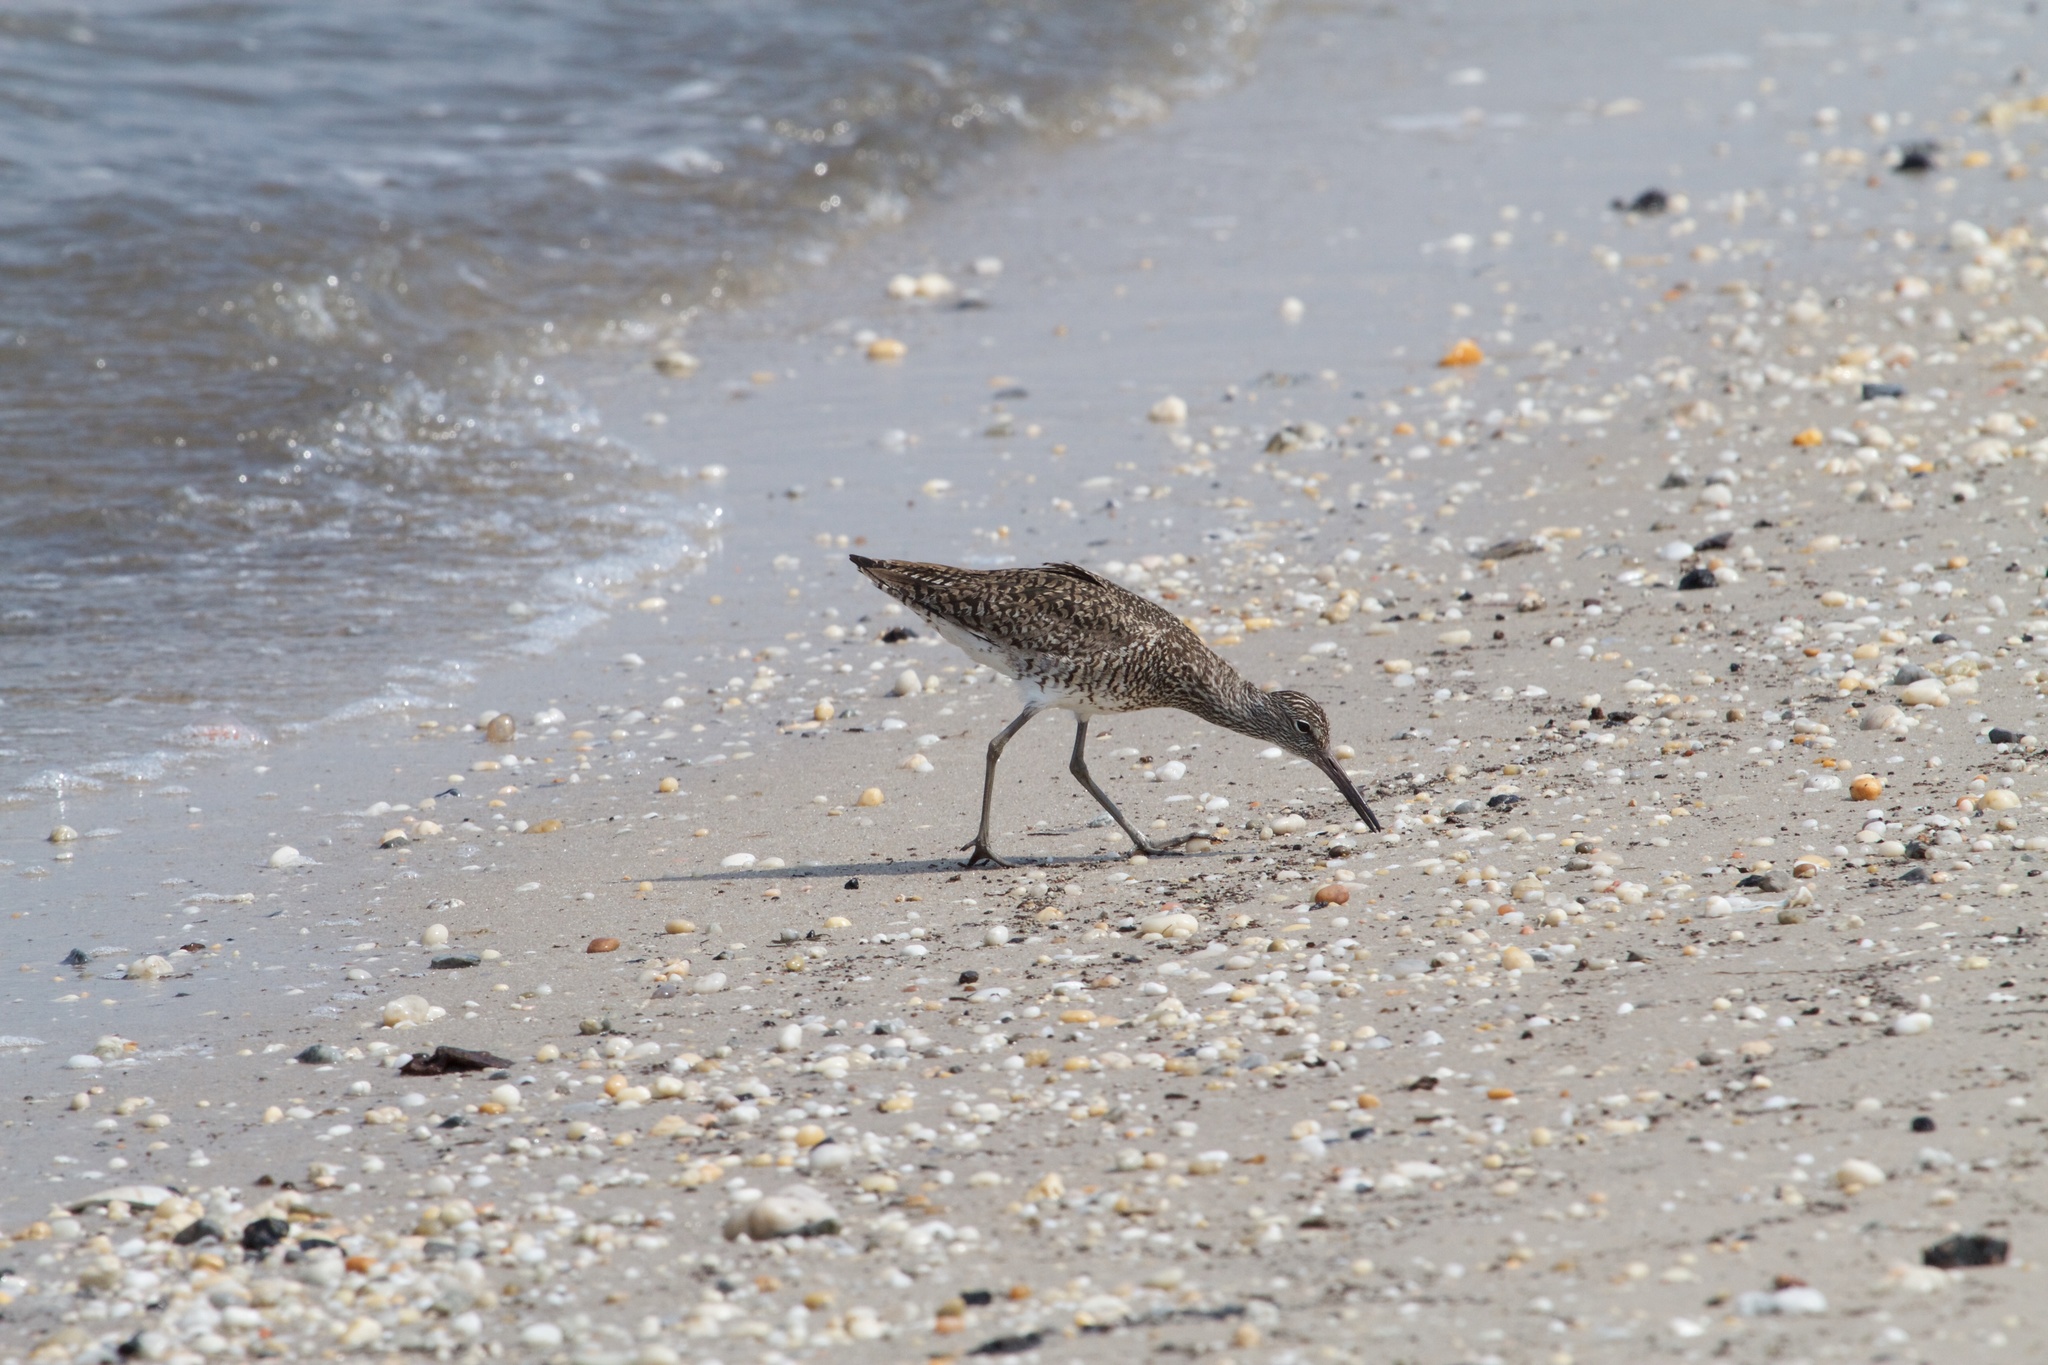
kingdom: Animalia
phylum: Chordata
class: Aves
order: Charadriiformes
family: Scolopacidae
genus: Tringa
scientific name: Tringa semipalmata
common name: Willet
